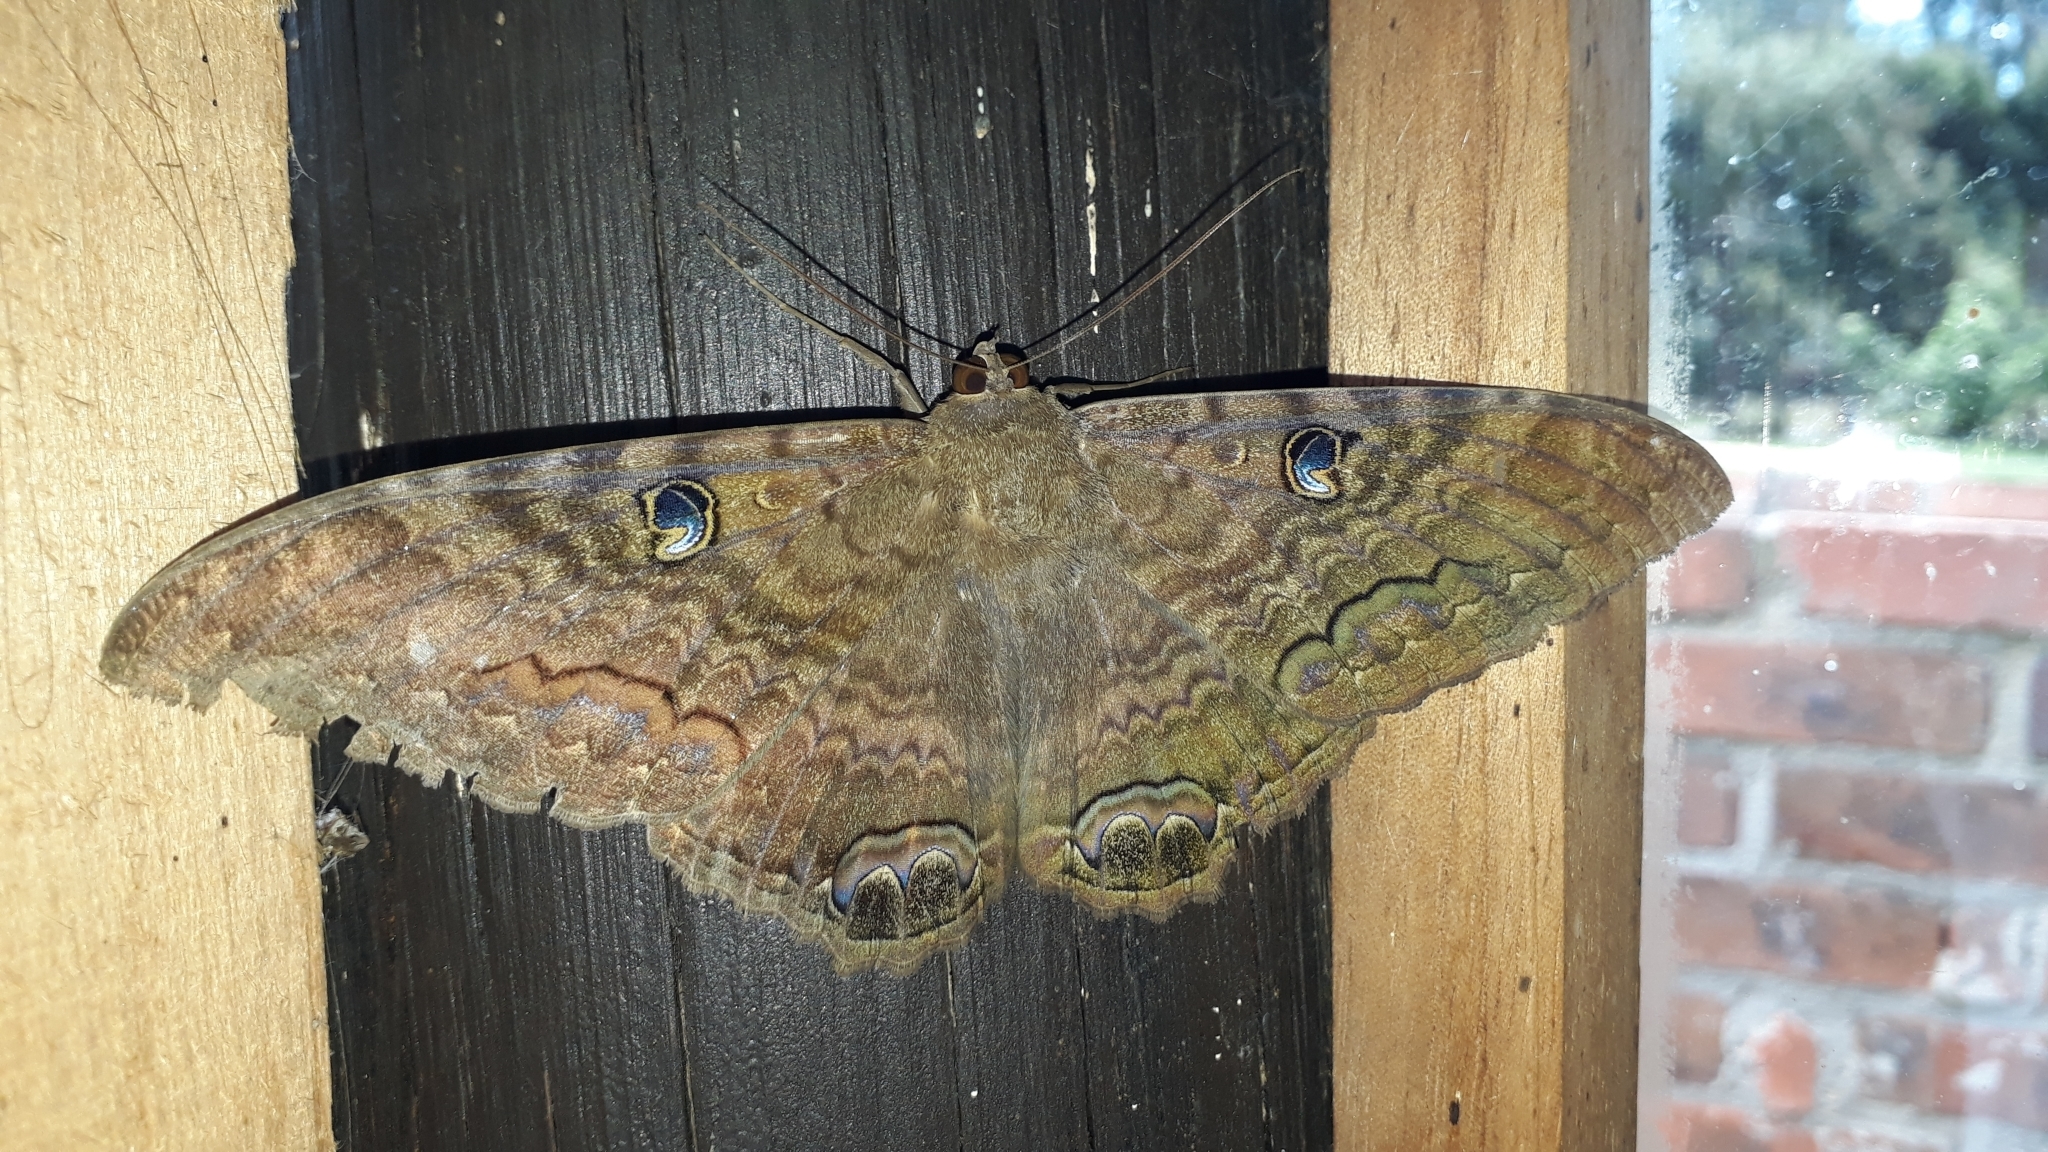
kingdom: Animalia
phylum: Arthropoda
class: Insecta
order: Lepidoptera
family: Erebidae
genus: Ascalapha
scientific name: Ascalapha odorata
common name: Black witch
